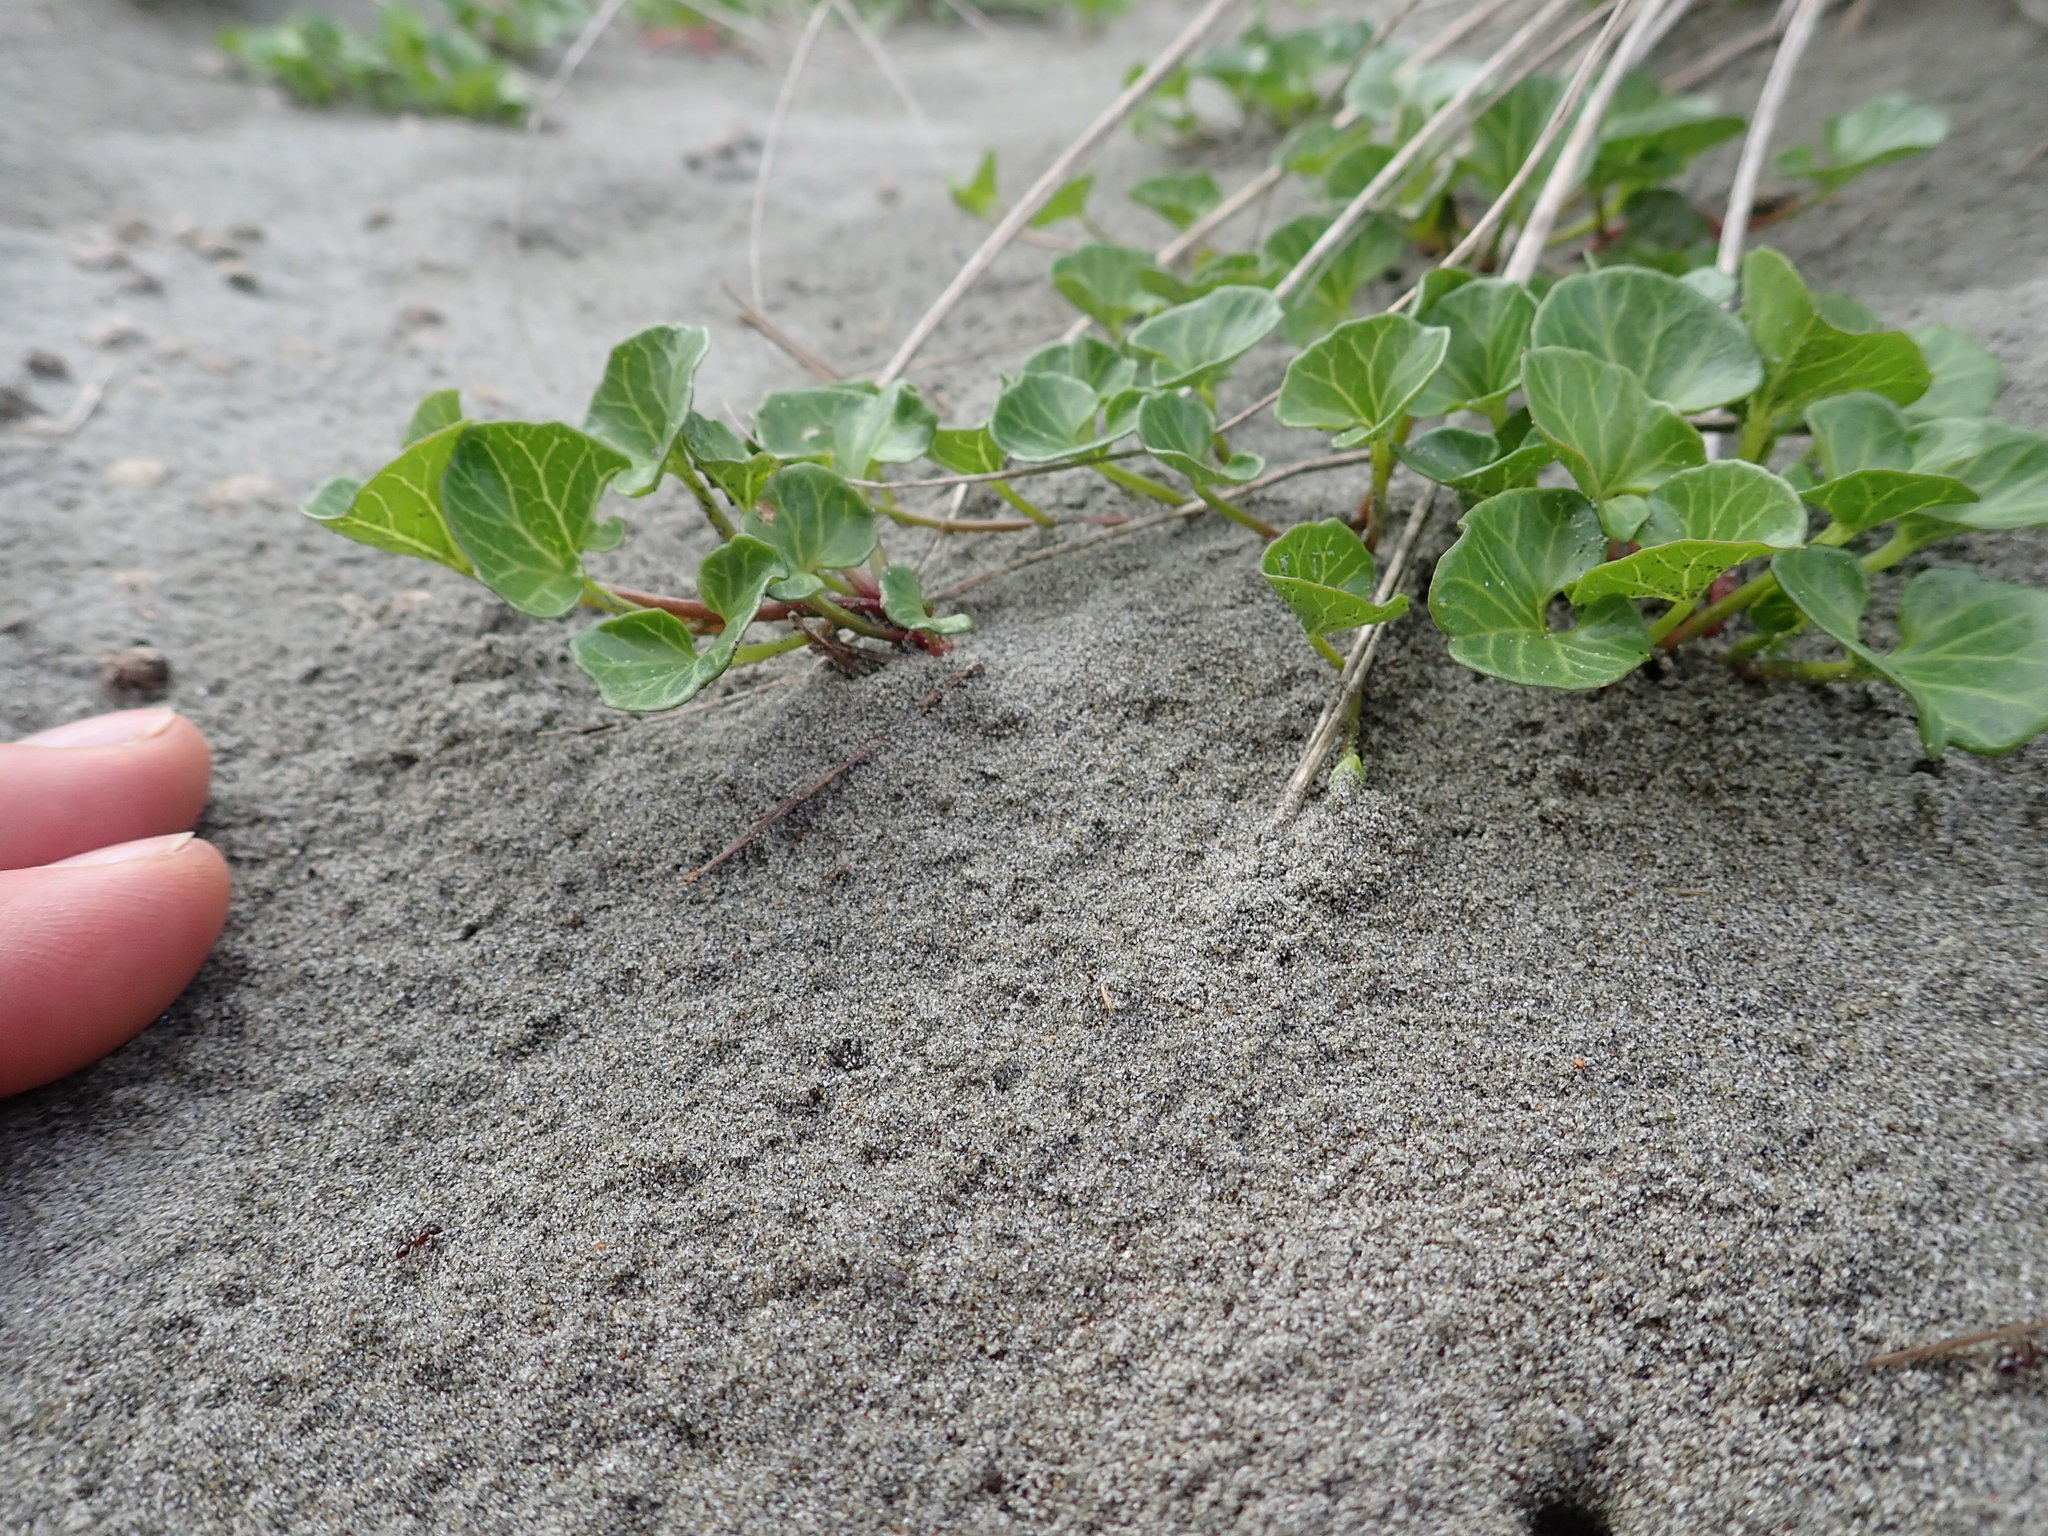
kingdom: Plantae
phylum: Tracheophyta
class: Magnoliopsida
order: Solanales
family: Convolvulaceae
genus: Calystegia
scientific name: Calystegia soldanella
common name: Sea bindweed
